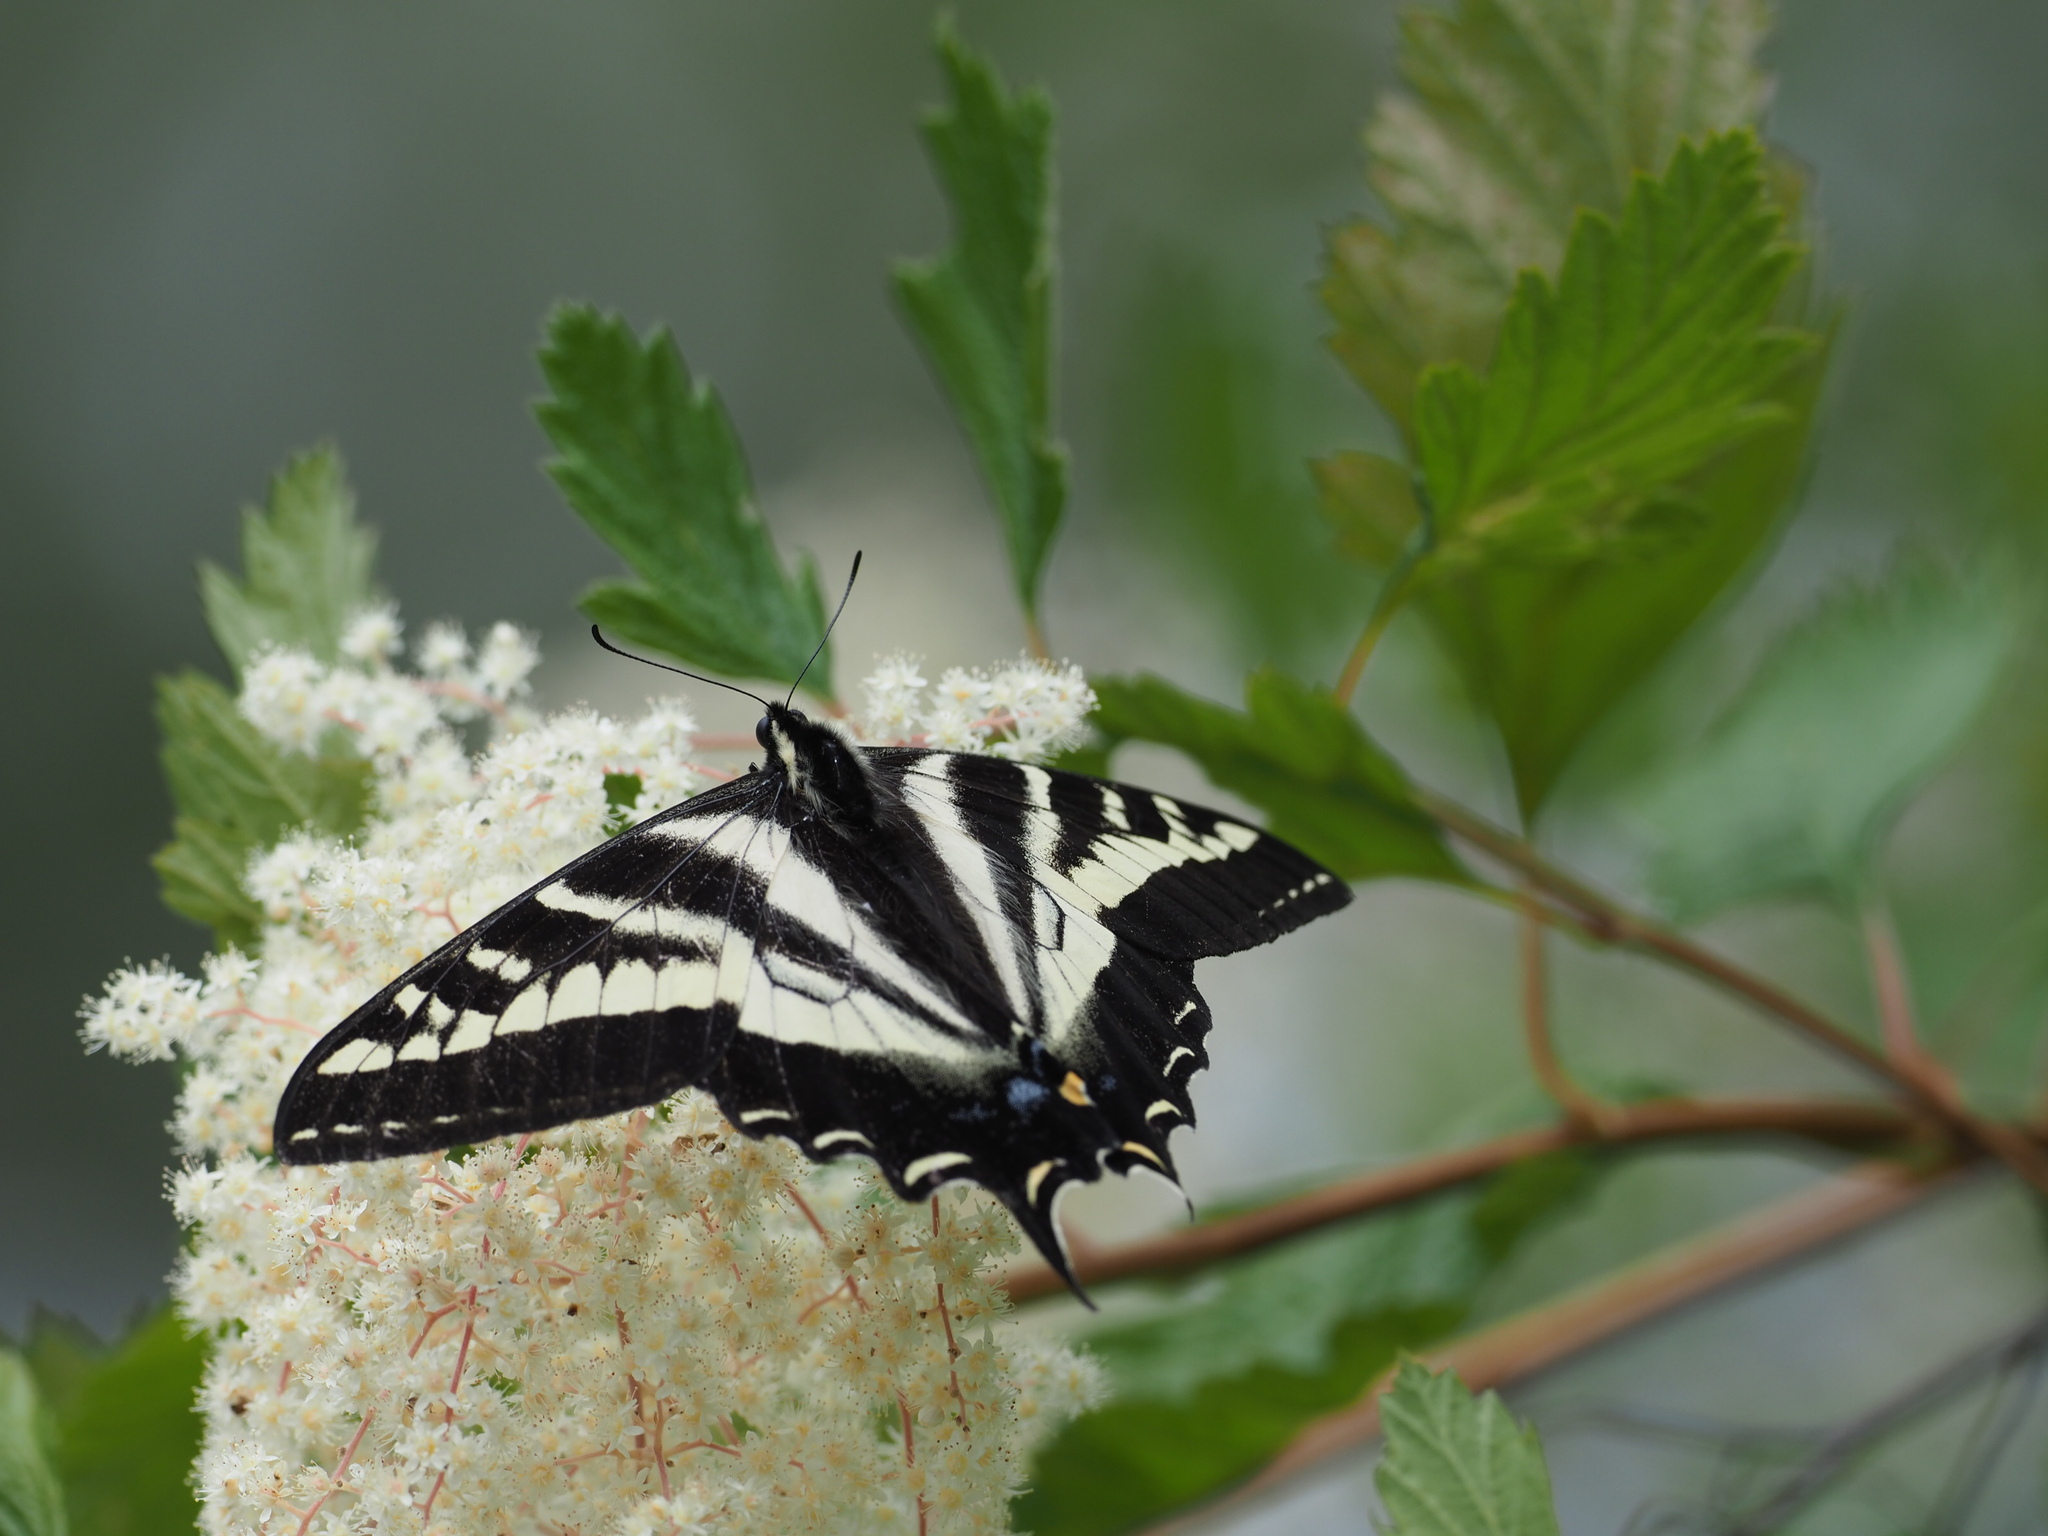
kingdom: Animalia
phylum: Arthropoda
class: Insecta
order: Lepidoptera
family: Papilionidae
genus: Papilio
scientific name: Papilio eurymedon
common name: Pale tiger swallowtail
